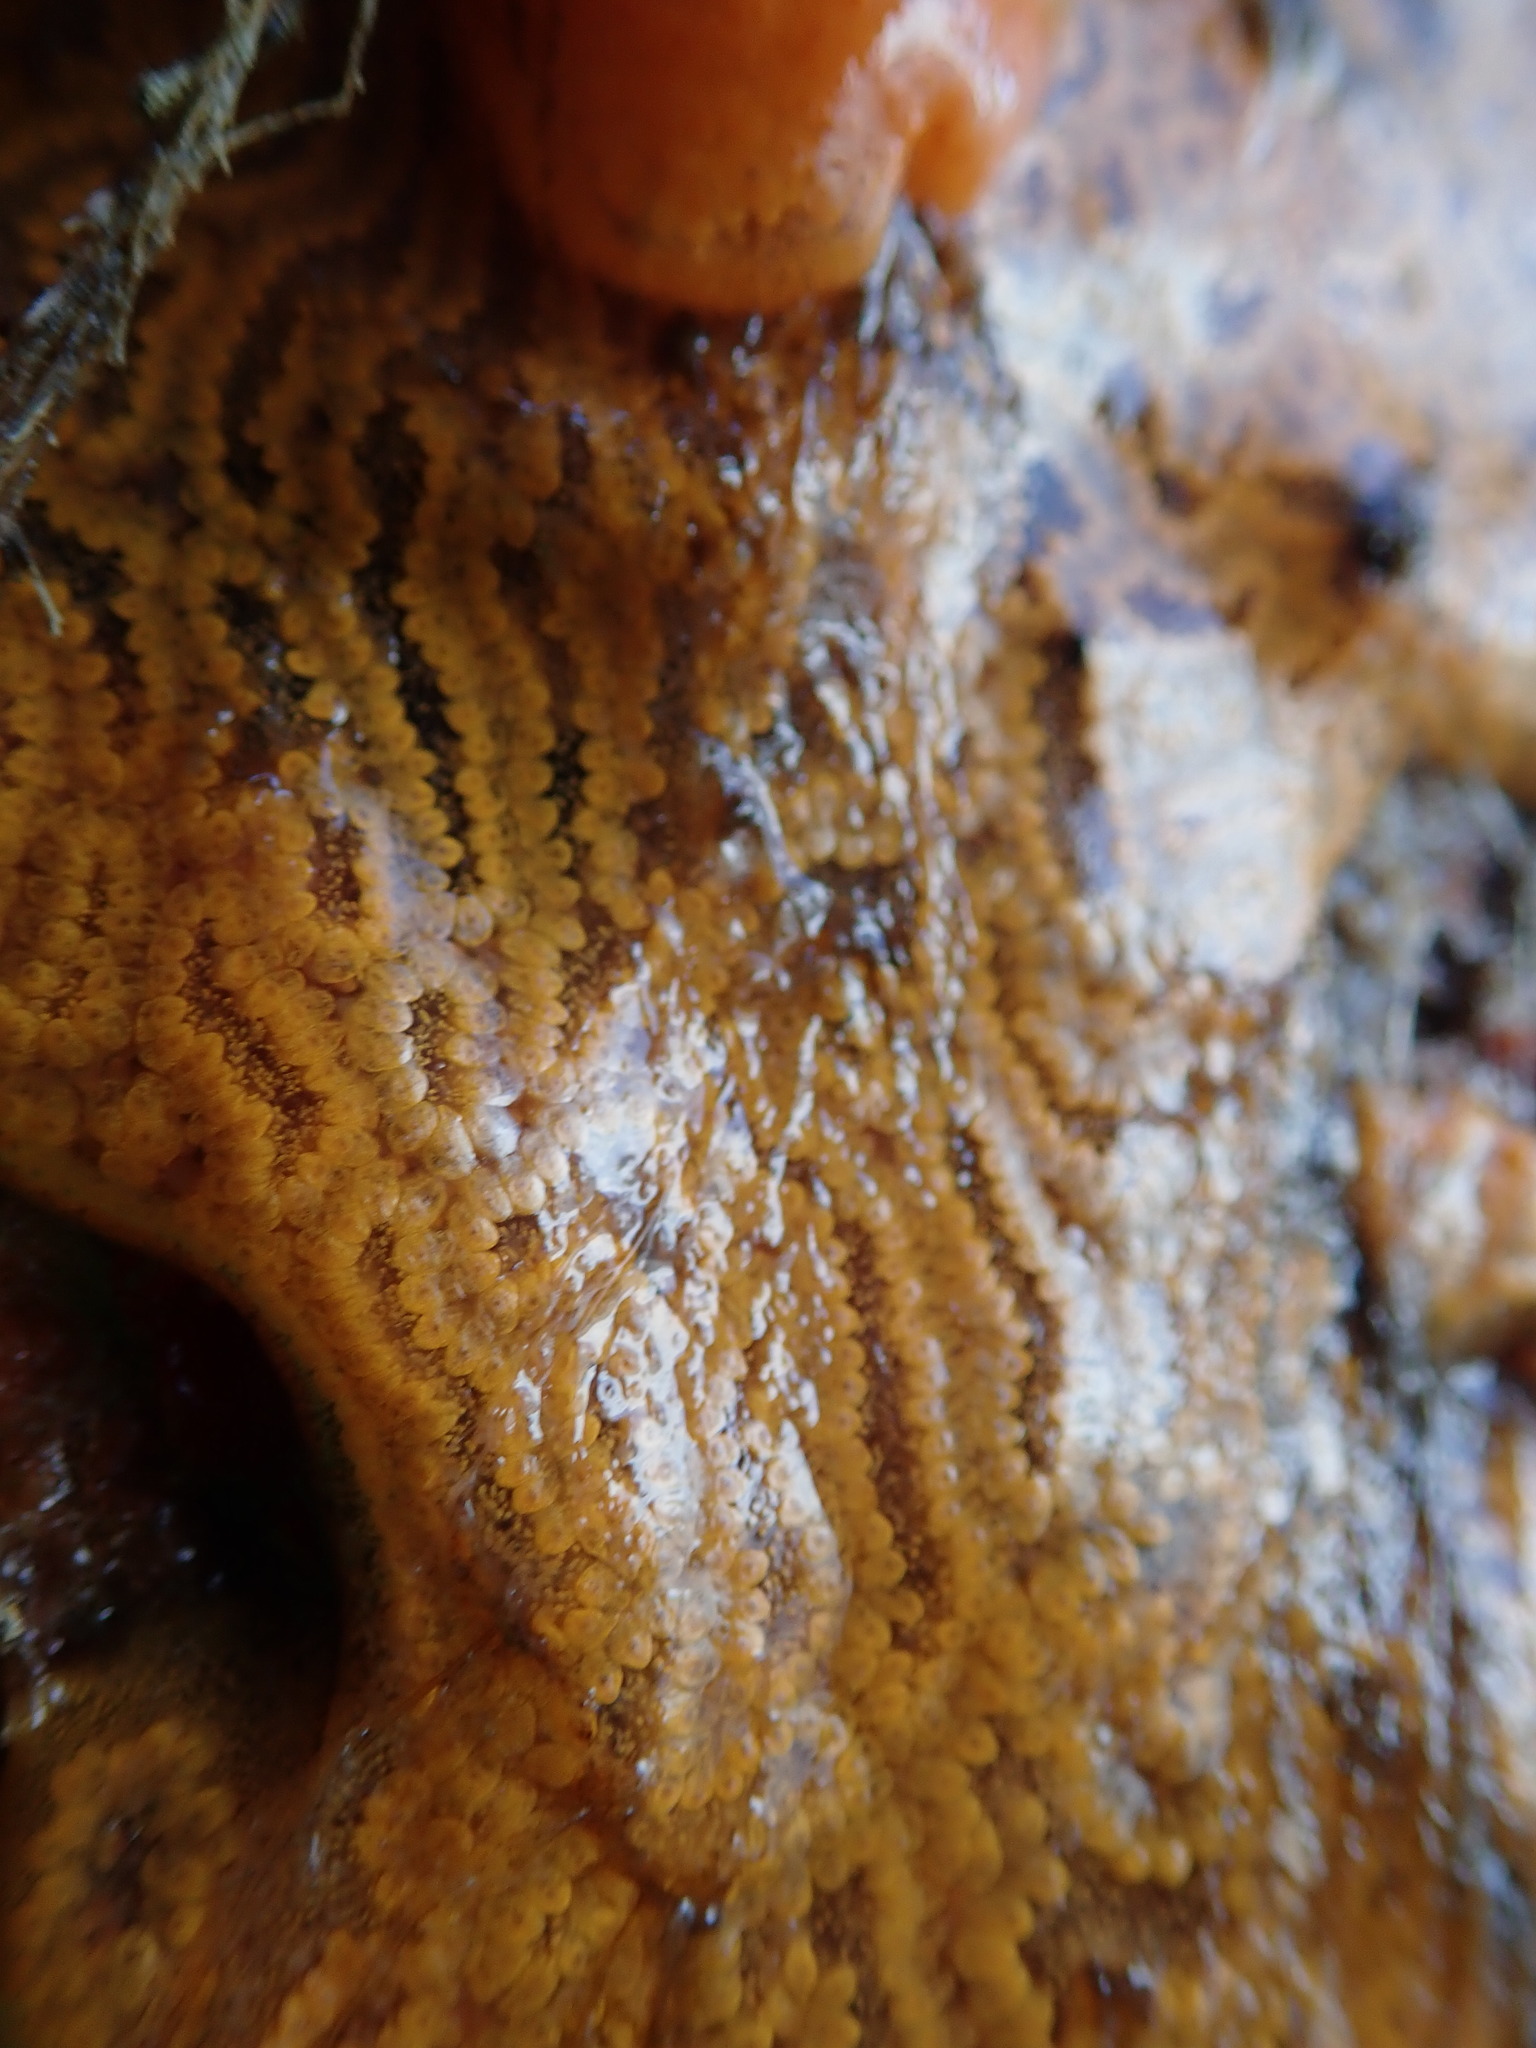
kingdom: Animalia
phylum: Chordata
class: Ascidiacea
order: Stolidobranchia
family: Styelidae
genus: Botrylloides
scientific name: Botrylloides violaceus
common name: Colonial sea squirt
